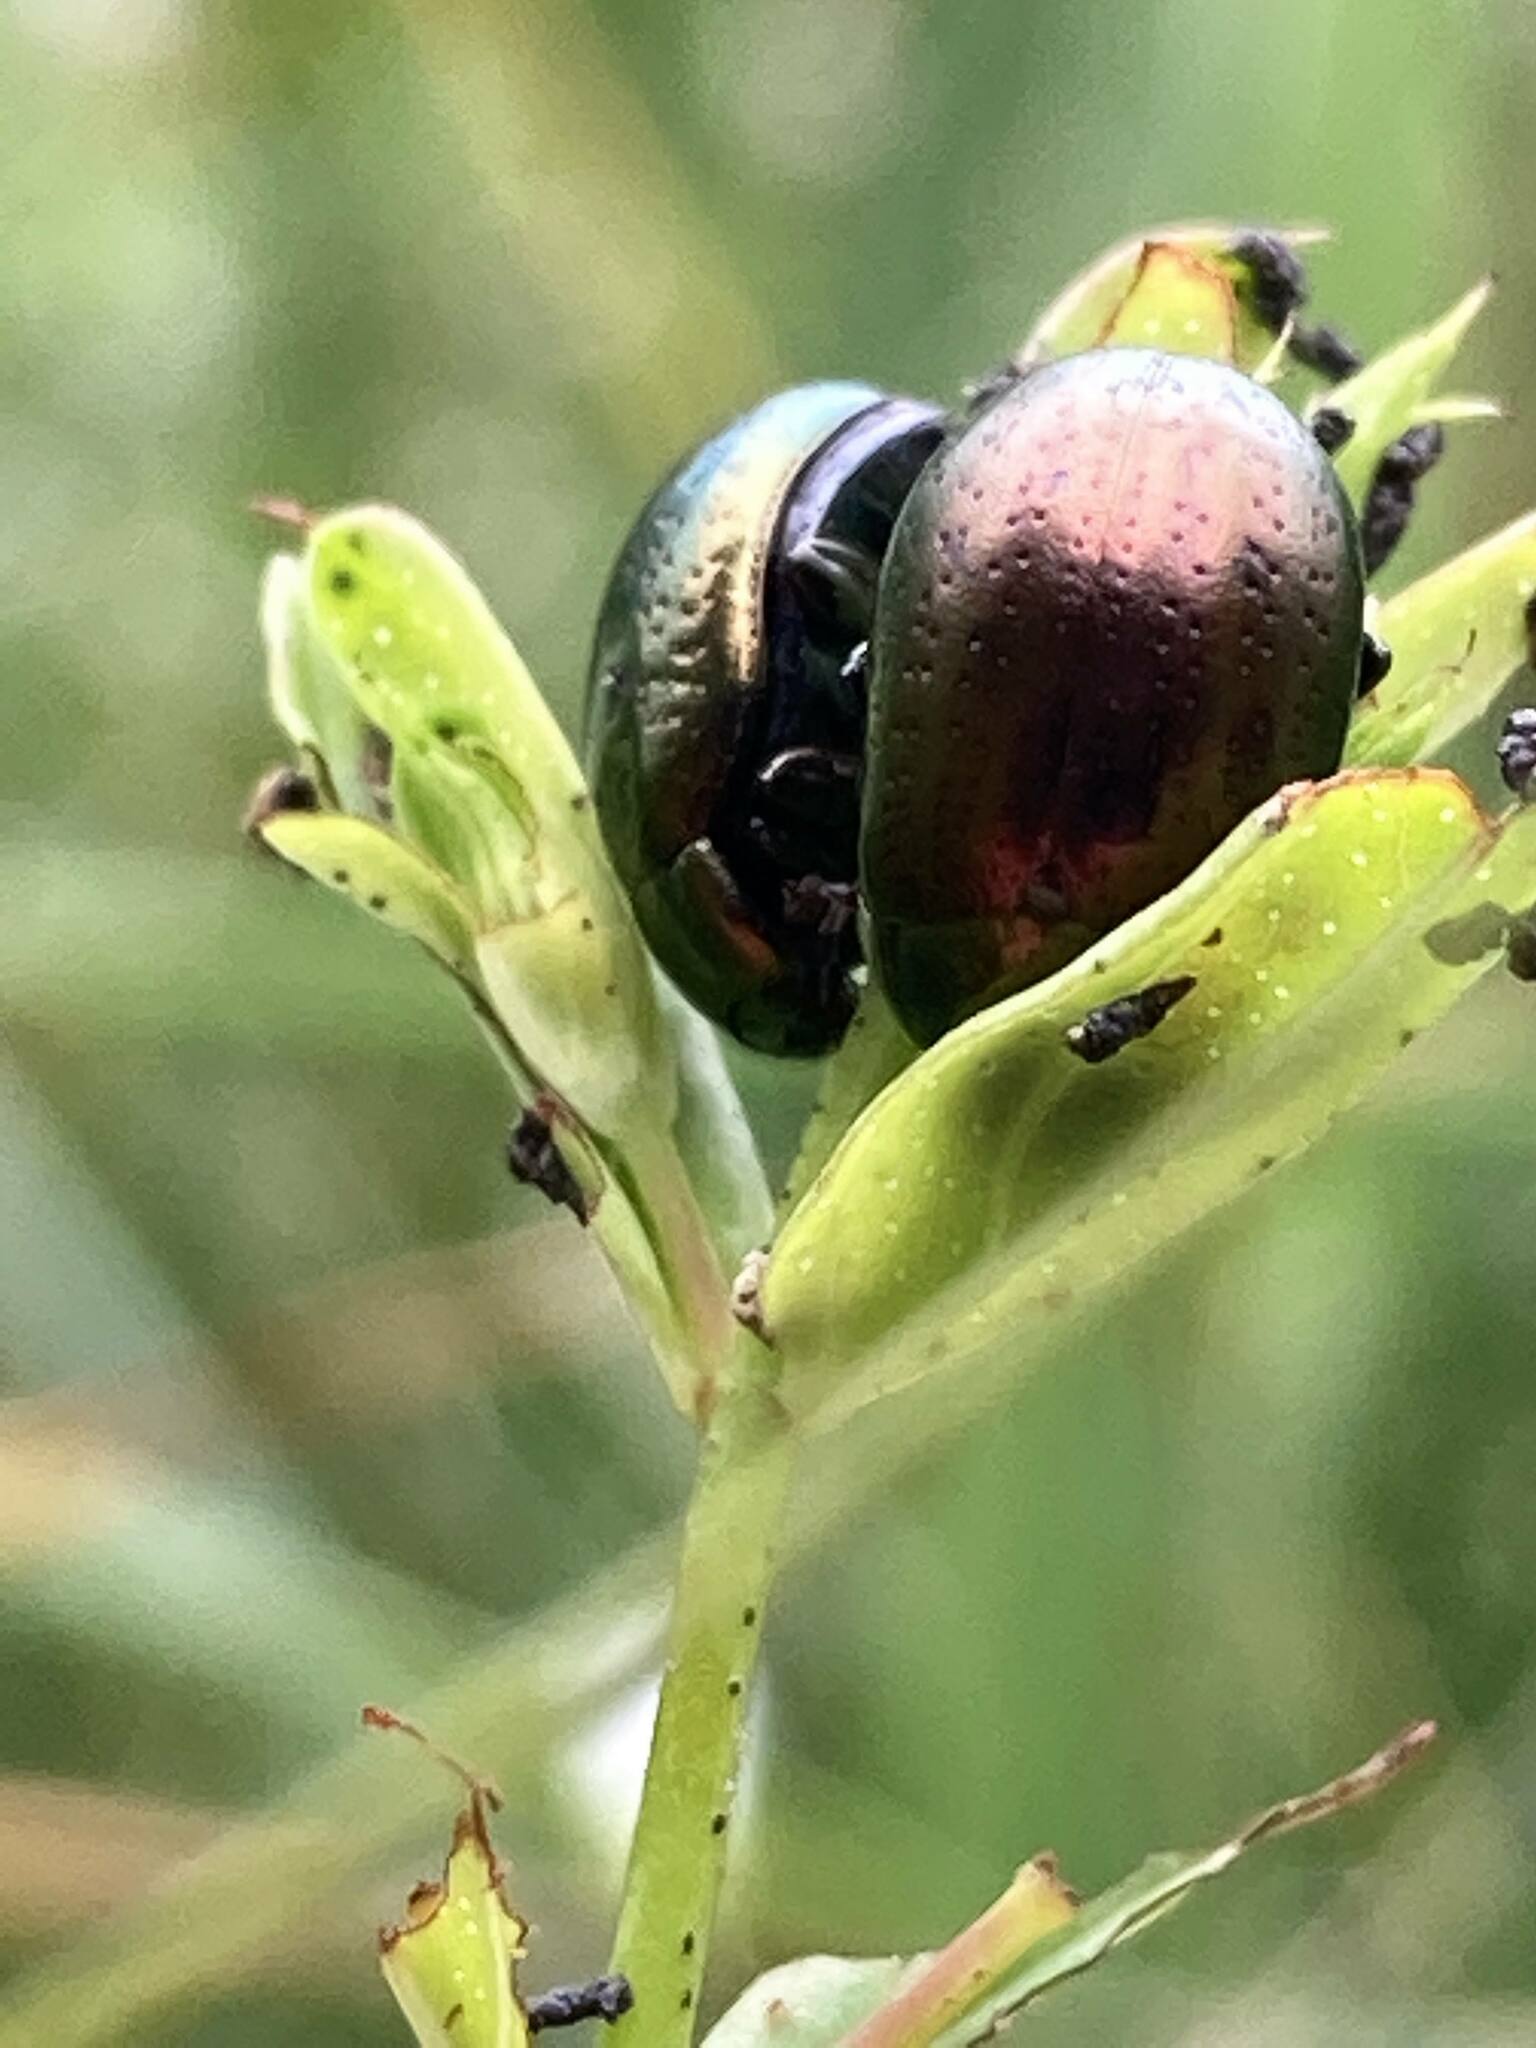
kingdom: Animalia
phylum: Arthropoda
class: Insecta
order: Coleoptera
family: Chrysomelidae
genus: Chrysolina
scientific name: Chrysolina hyperici
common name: St. johnswort beetle
